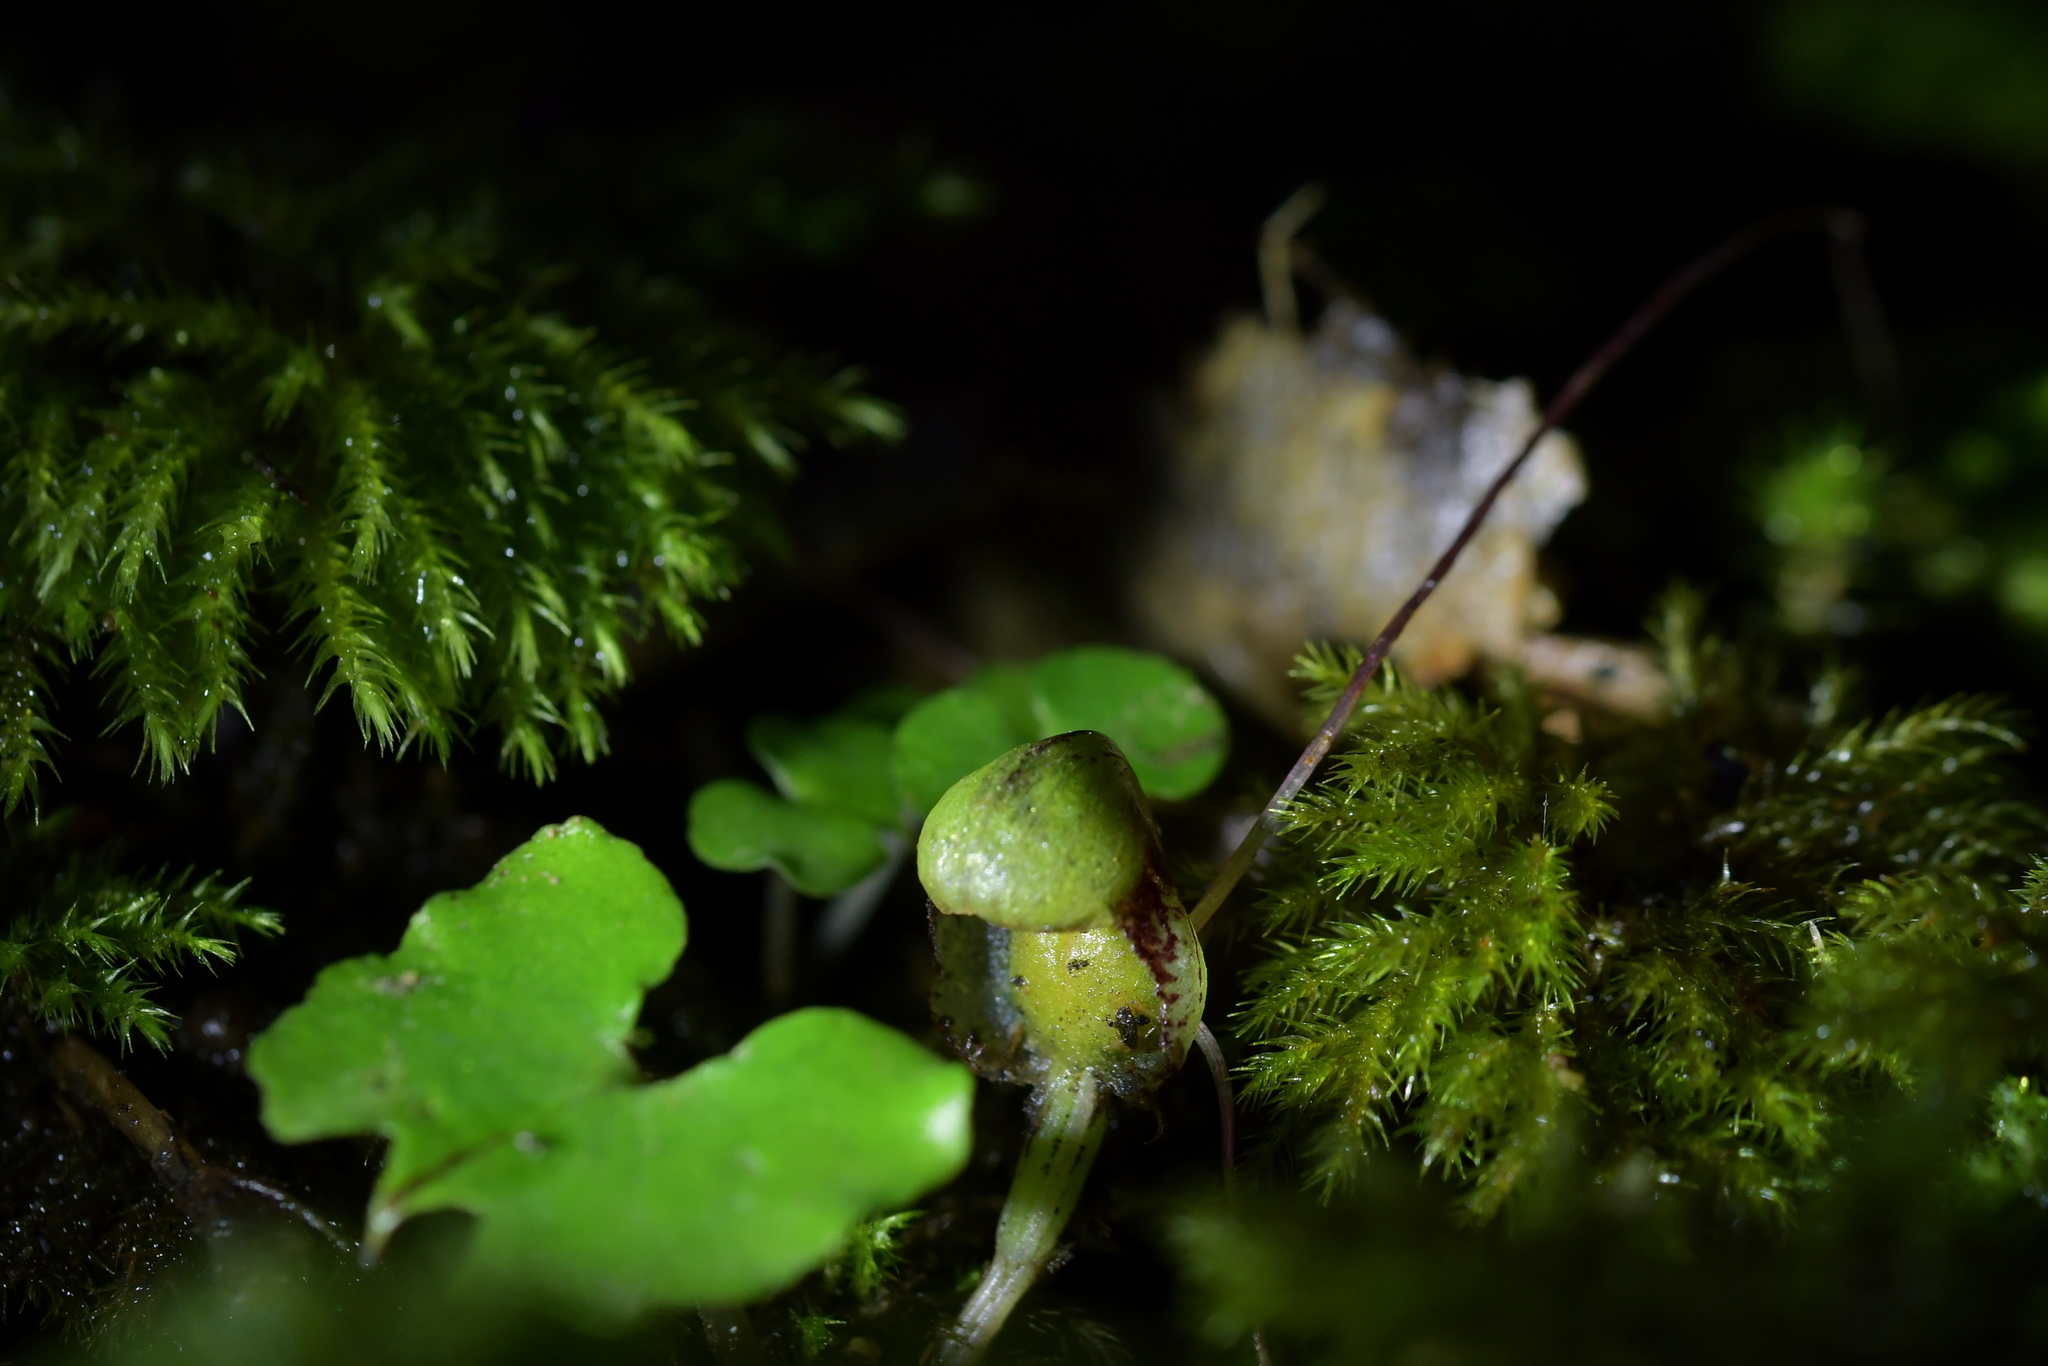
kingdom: Plantae
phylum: Tracheophyta
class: Liliopsida
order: Asparagales
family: Orchidaceae
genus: Corybas
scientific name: Corybas vitreus
